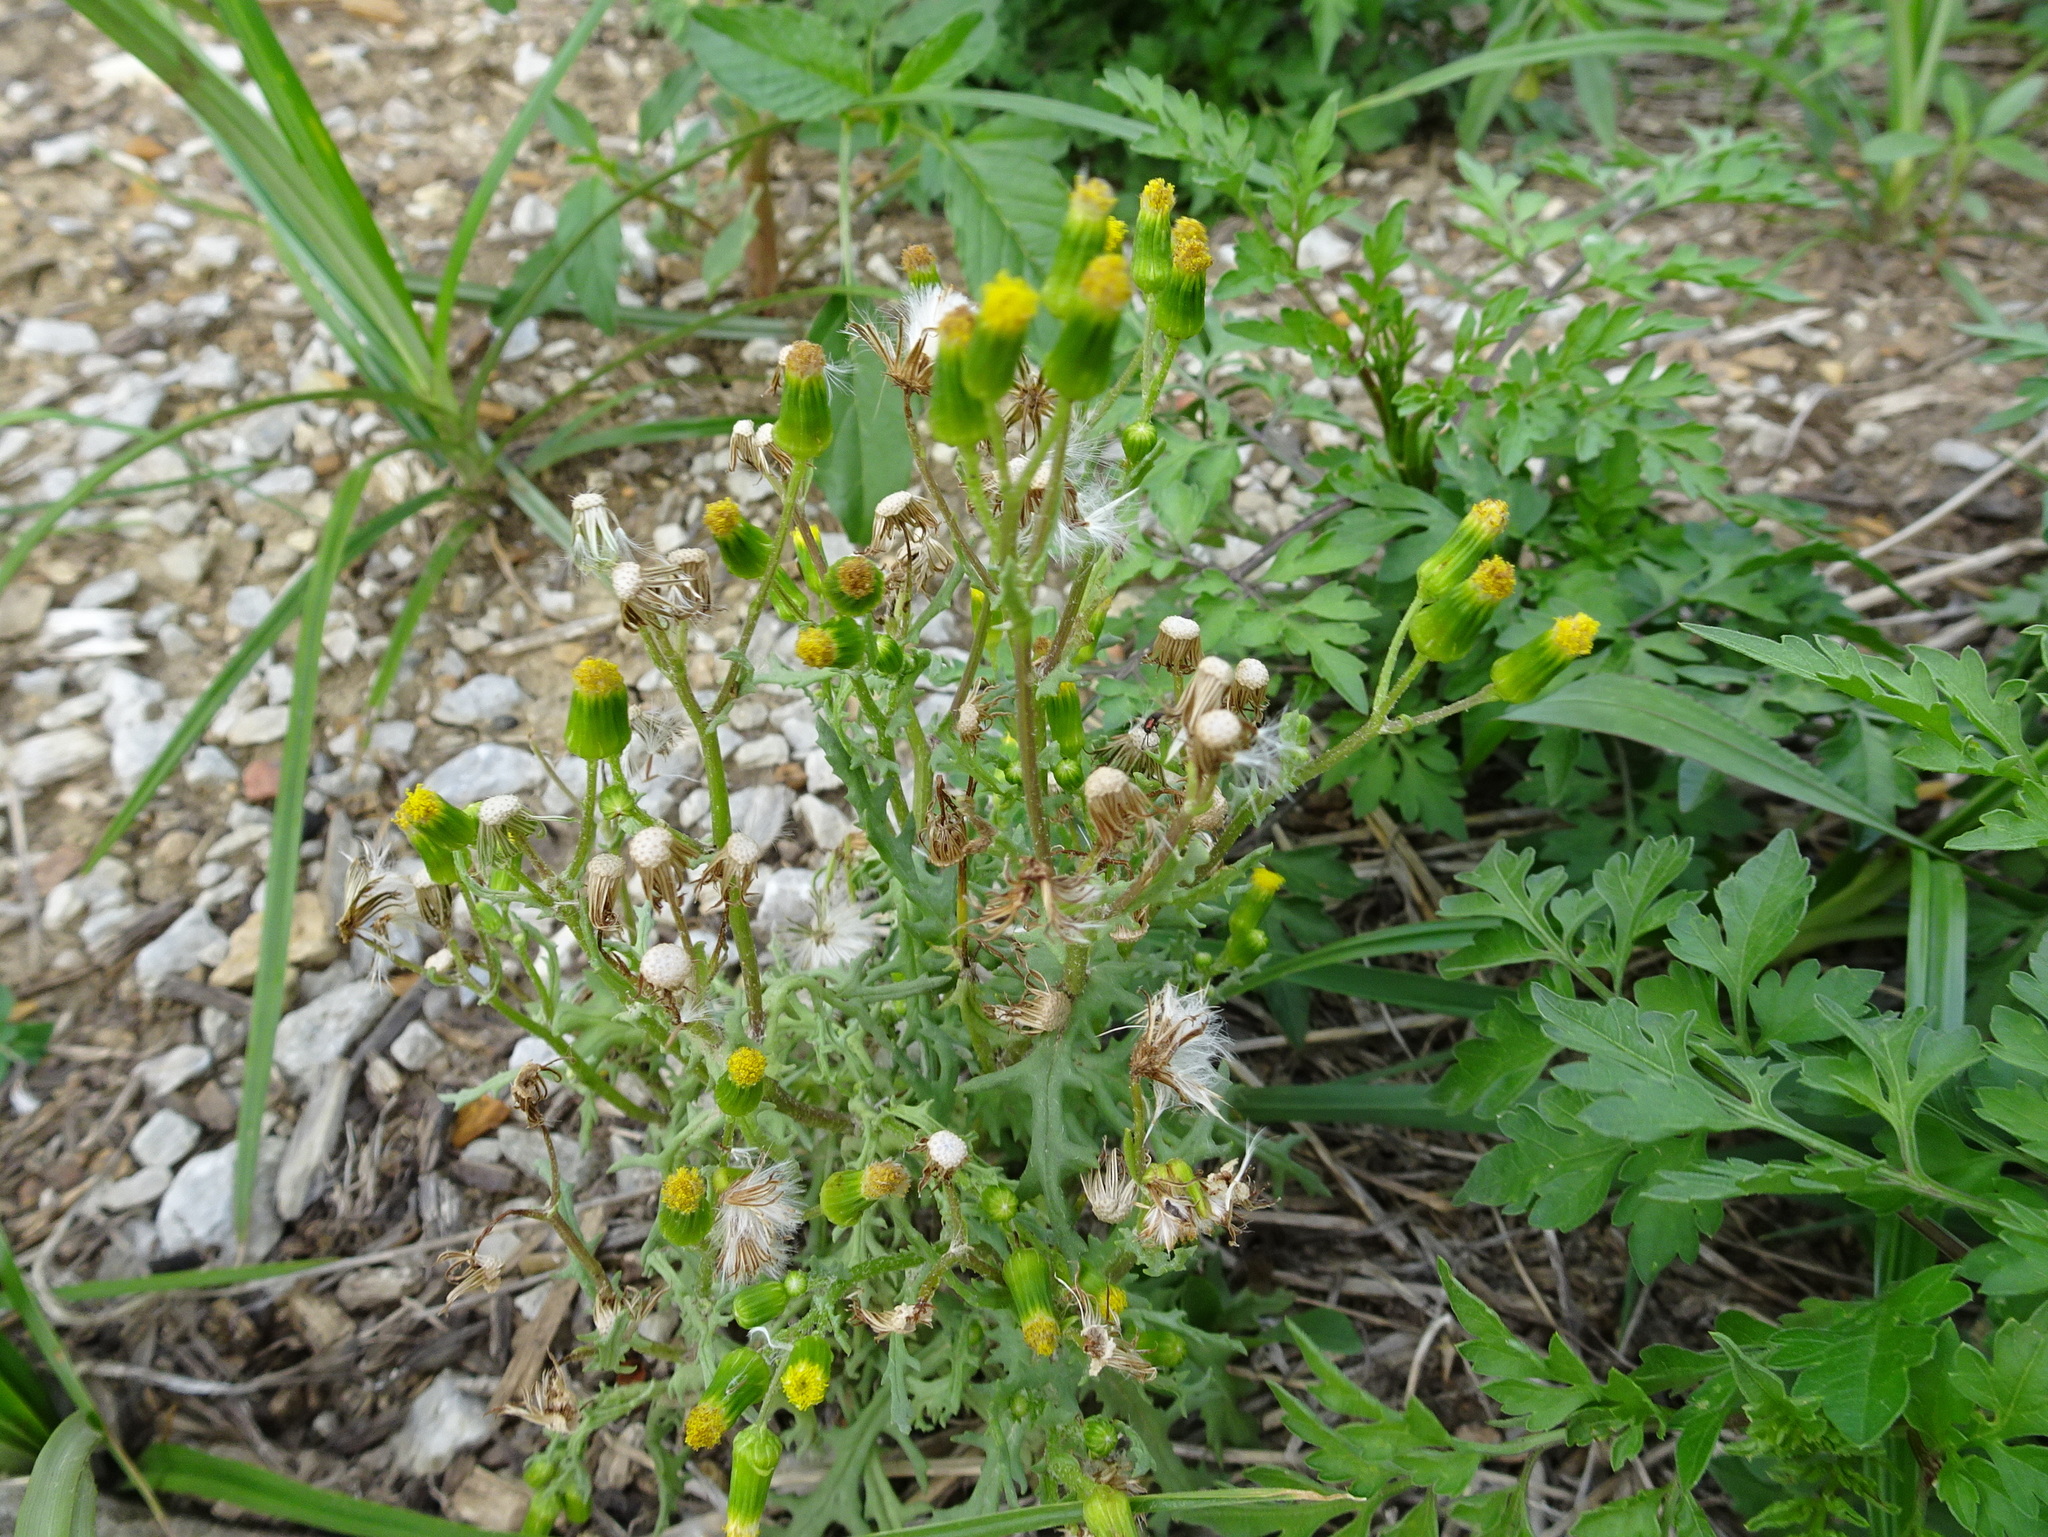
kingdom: Plantae
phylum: Tracheophyta
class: Magnoliopsida
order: Asterales
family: Asteraceae
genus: Senecio
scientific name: Senecio vulgaris
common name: Old-man-in-the-spring
